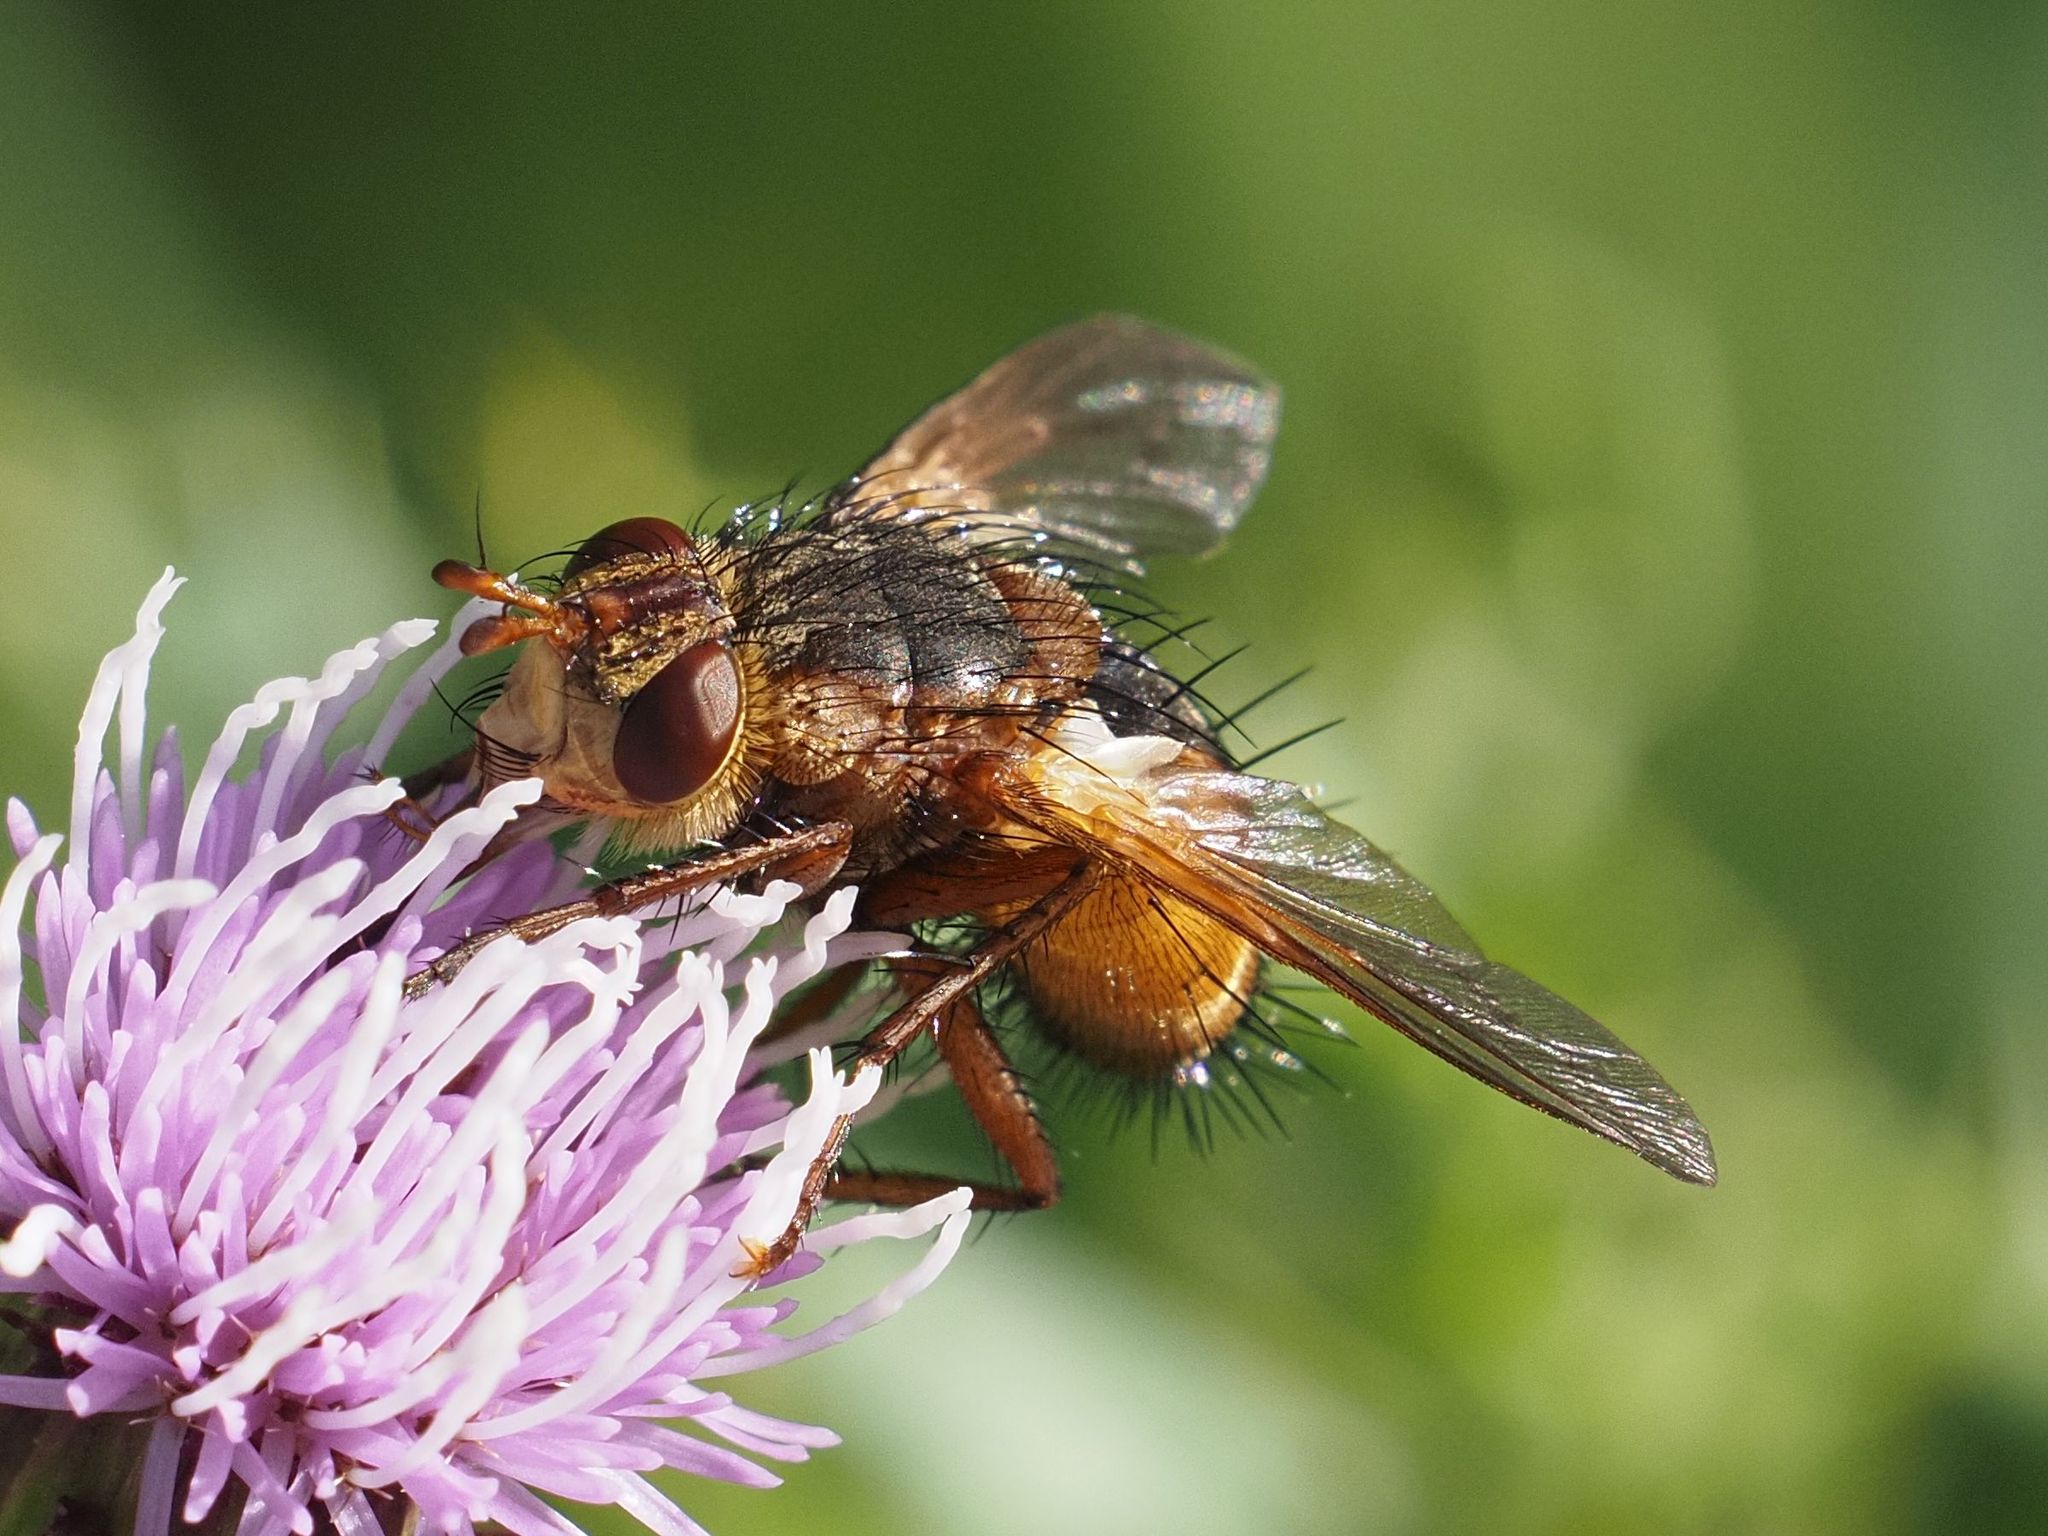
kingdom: Animalia
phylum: Arthropoda
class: Insecta
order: Diptera
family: Tachinidae
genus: Tachina
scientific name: Tachina fera
